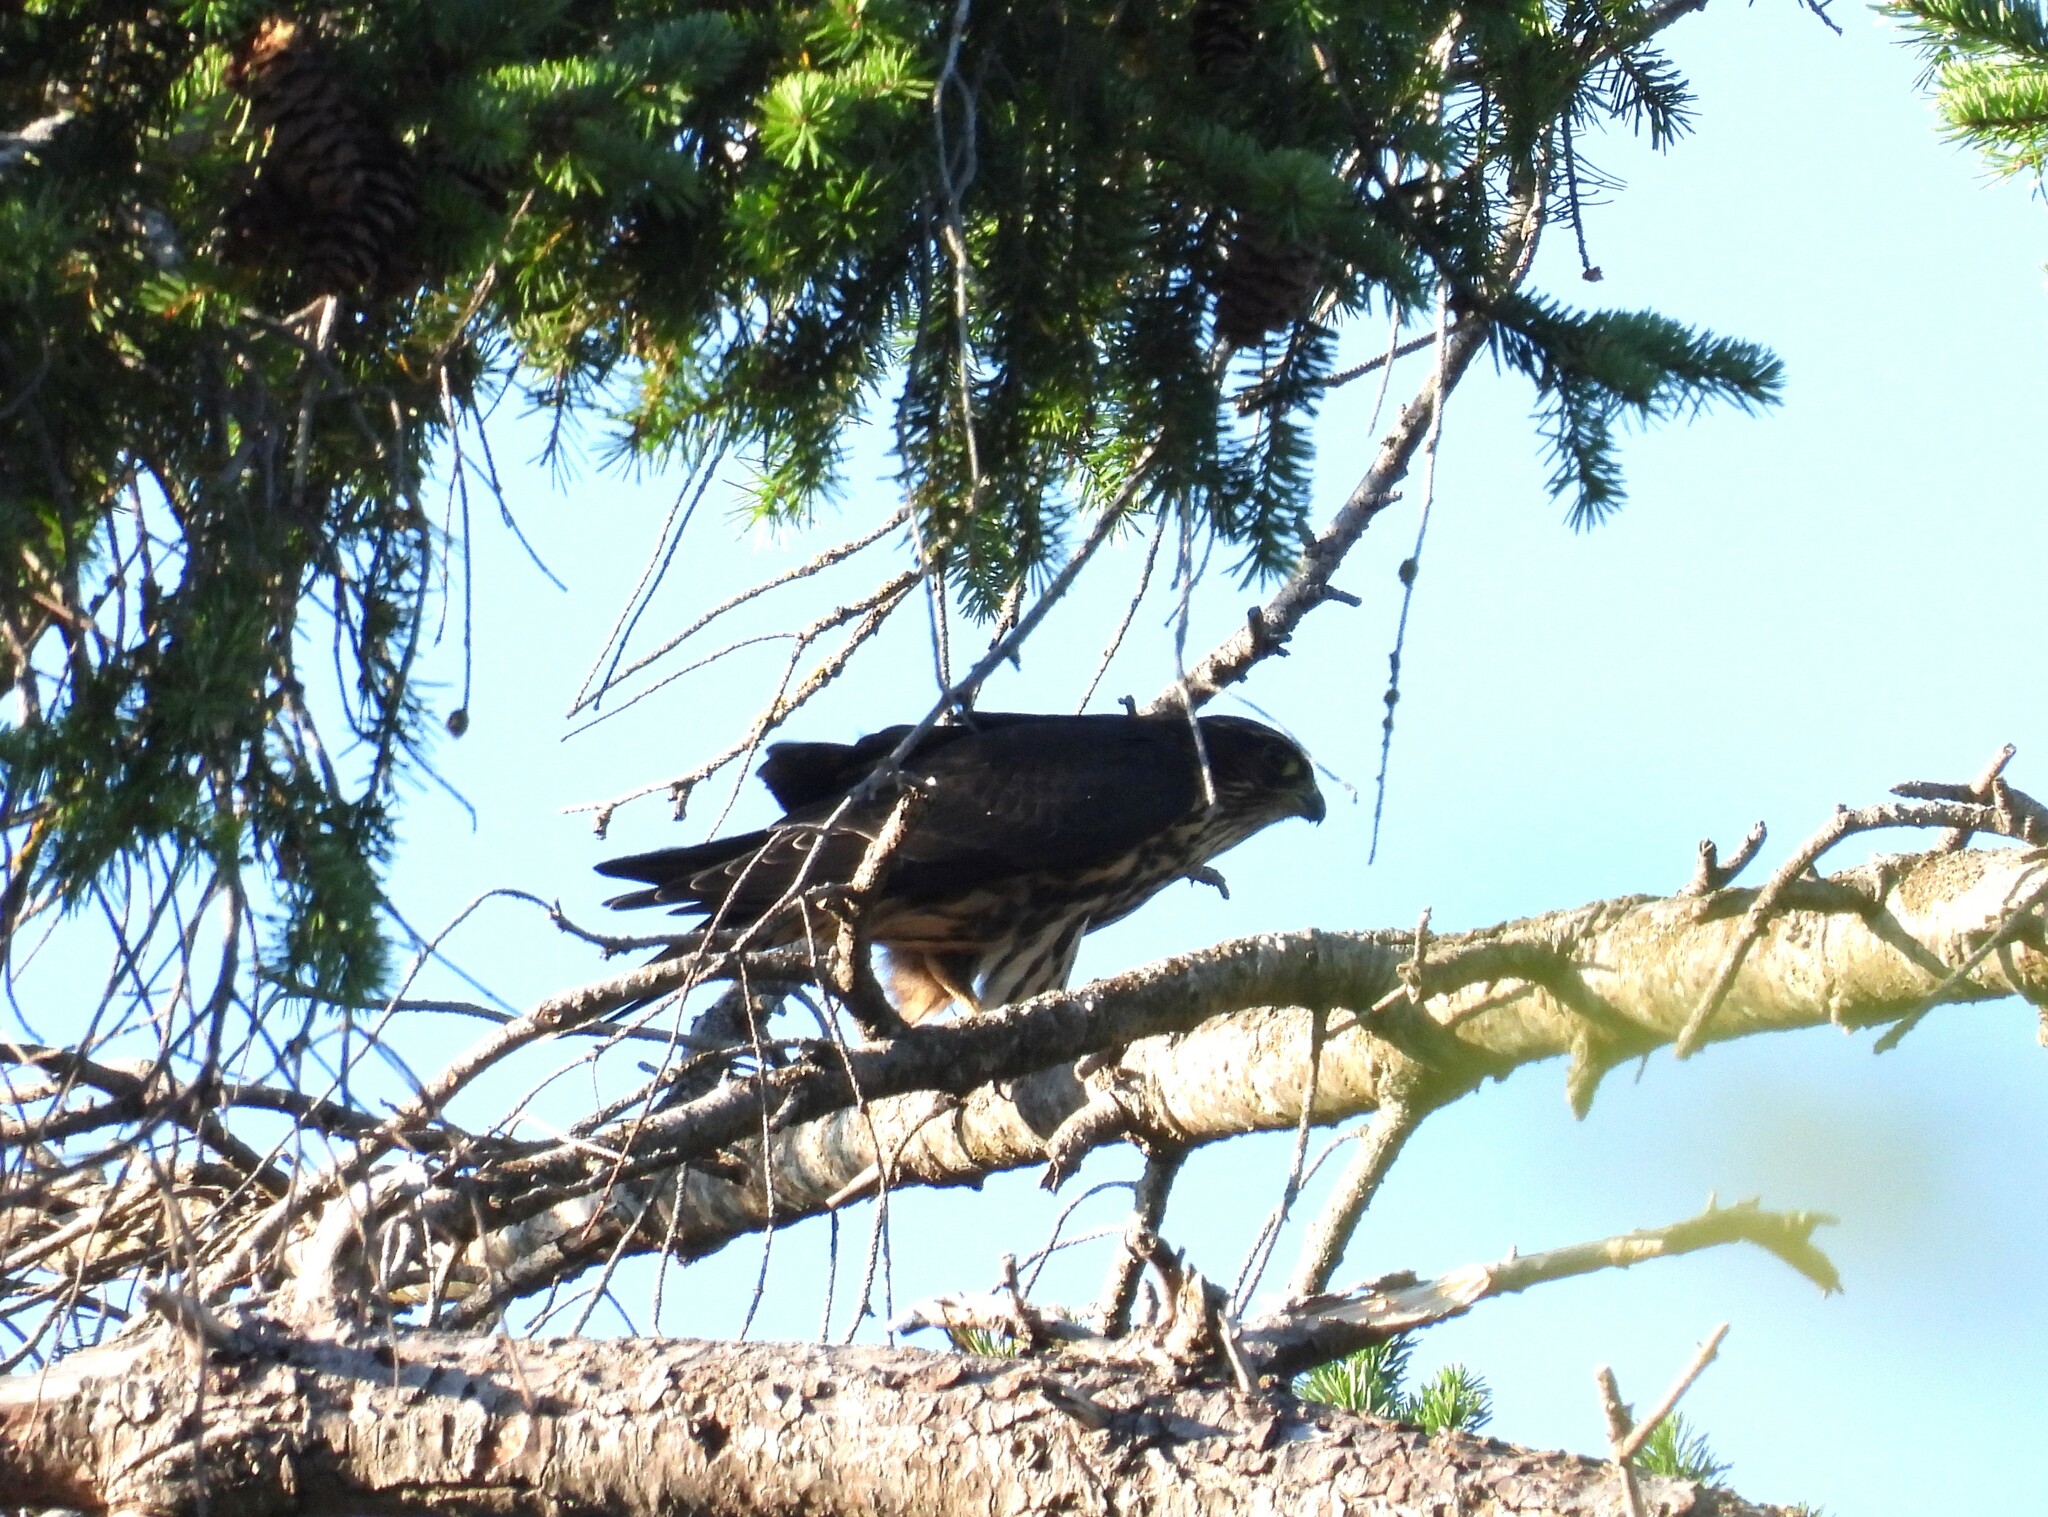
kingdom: Animalia
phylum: Chordata
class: Aves
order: Falconiformes
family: Falconidae
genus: Falco
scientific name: Falco columbarius
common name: Merlin
